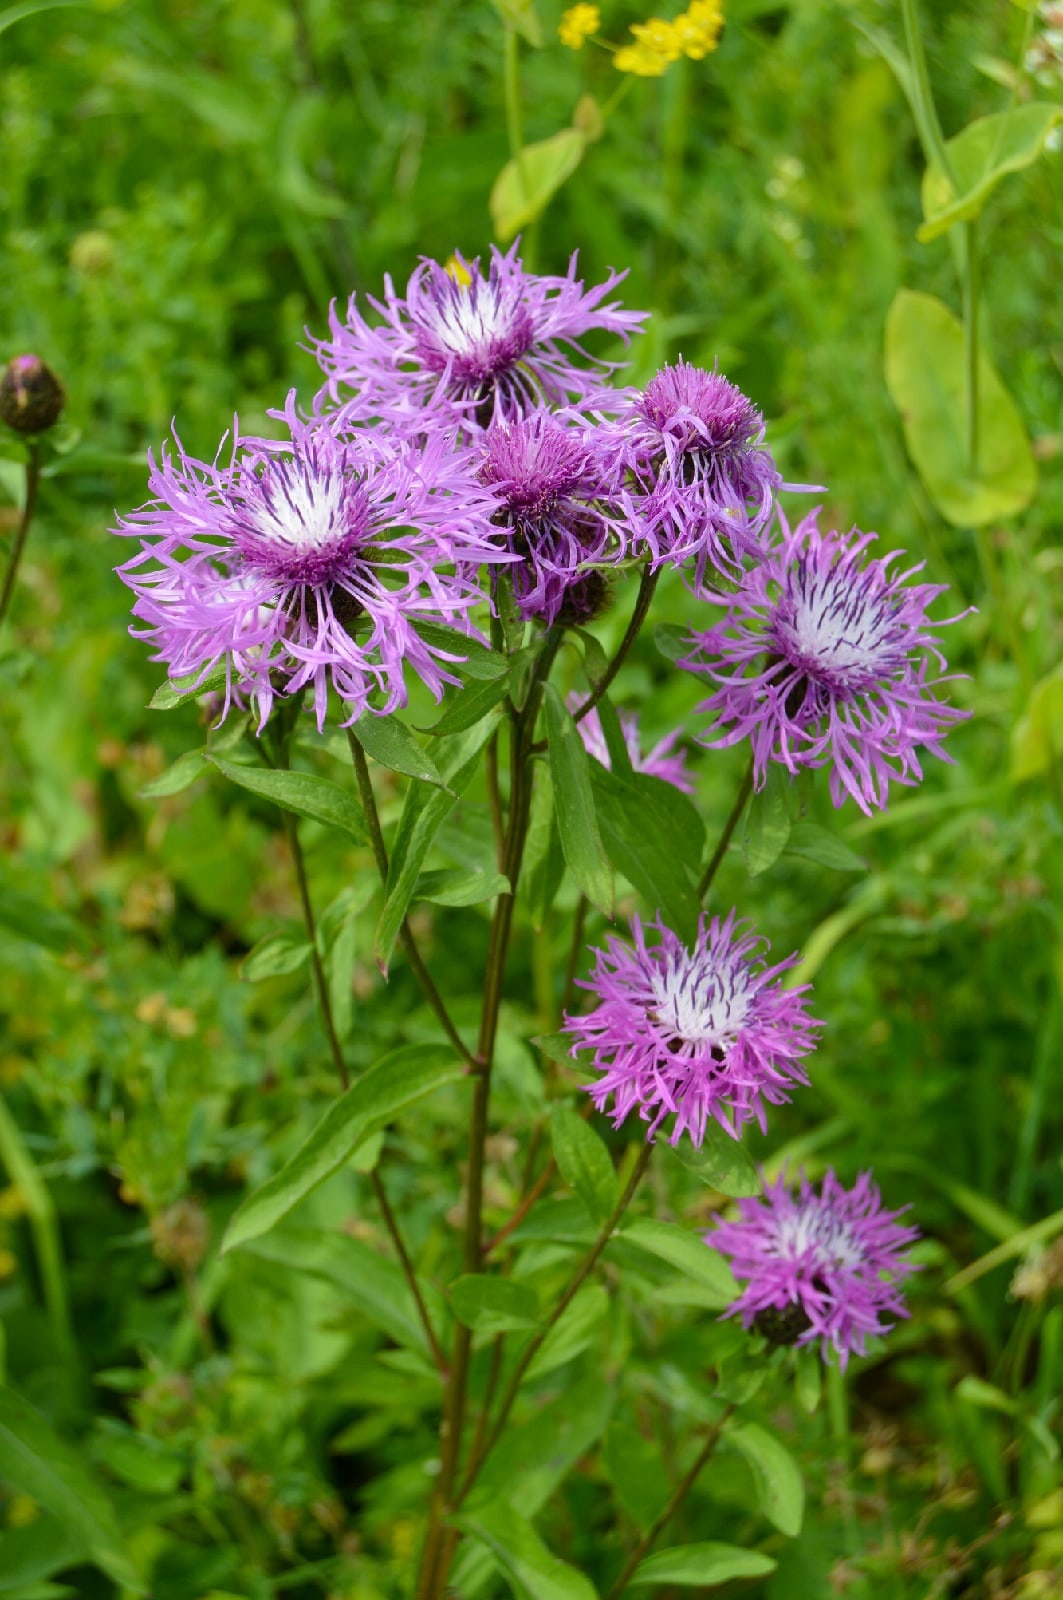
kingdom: Plantae
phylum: Tracheophyta
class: Magnoliopsida
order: Asterales
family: Asteraceae
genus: Centaurea
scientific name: Centaurea pseudophrygia
